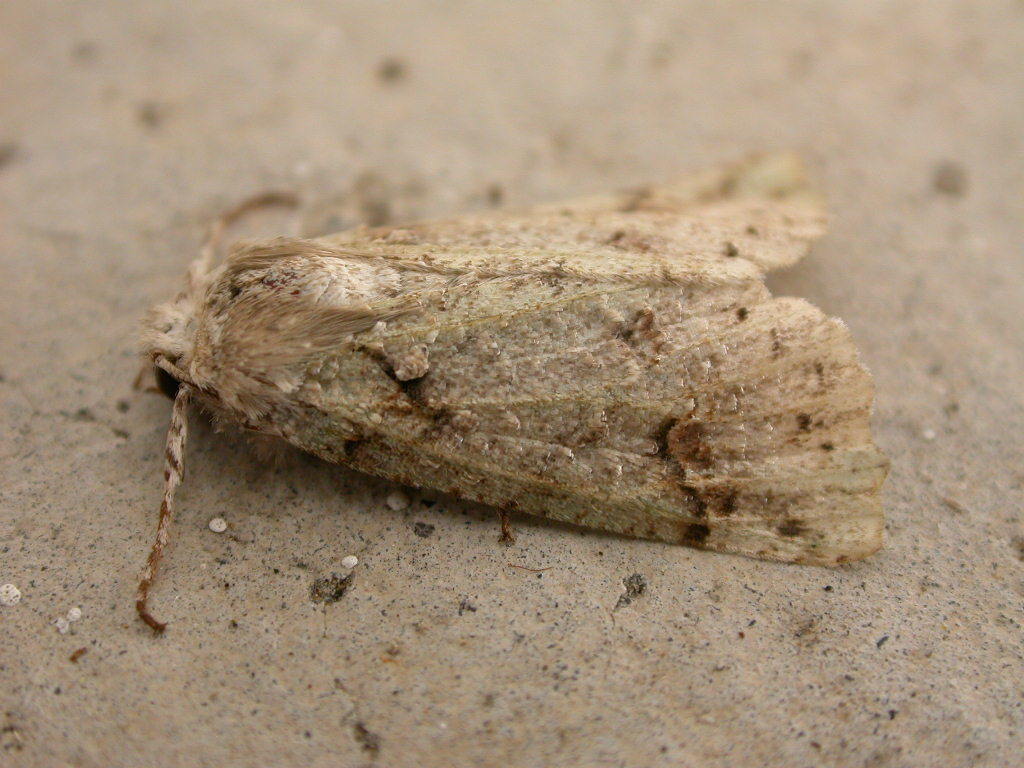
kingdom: Animalia
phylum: Arthropoda
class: Insecta
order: Lepidoptera
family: Geometridae
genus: Declana
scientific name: Declana floccosa
